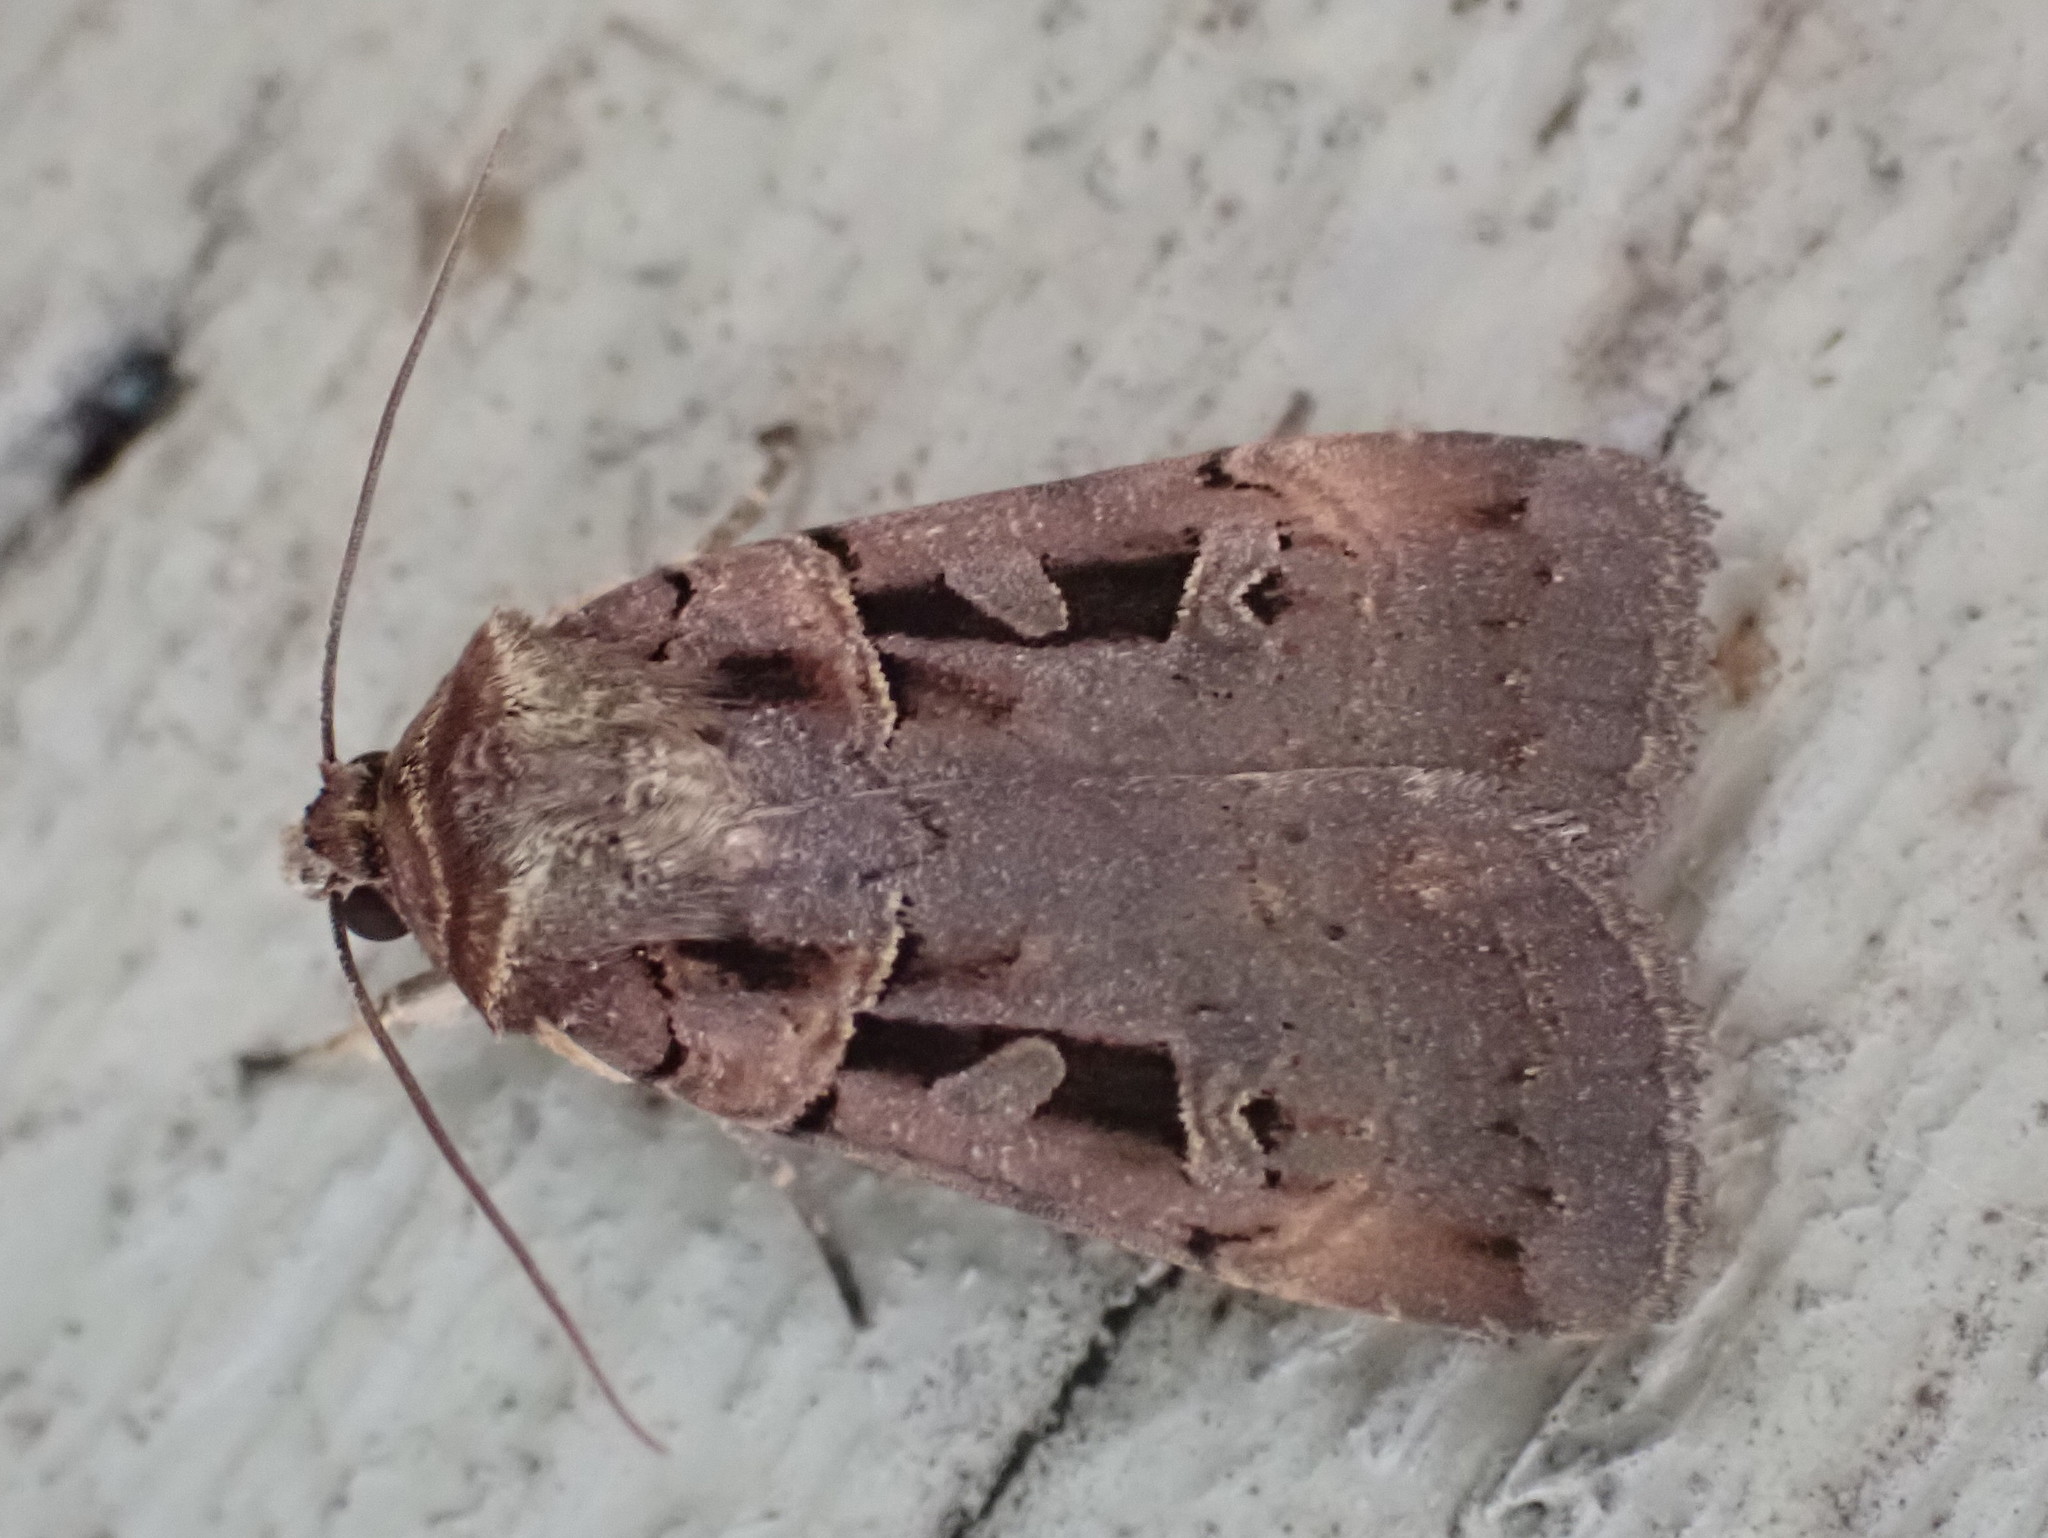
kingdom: Animalia
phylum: Arthropoda
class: Insecta
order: Lepidoptera
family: Noctuidae
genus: Pseudohermonassa
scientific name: Pseudohermonassa tenuicula
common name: Morrison's sooty dart
